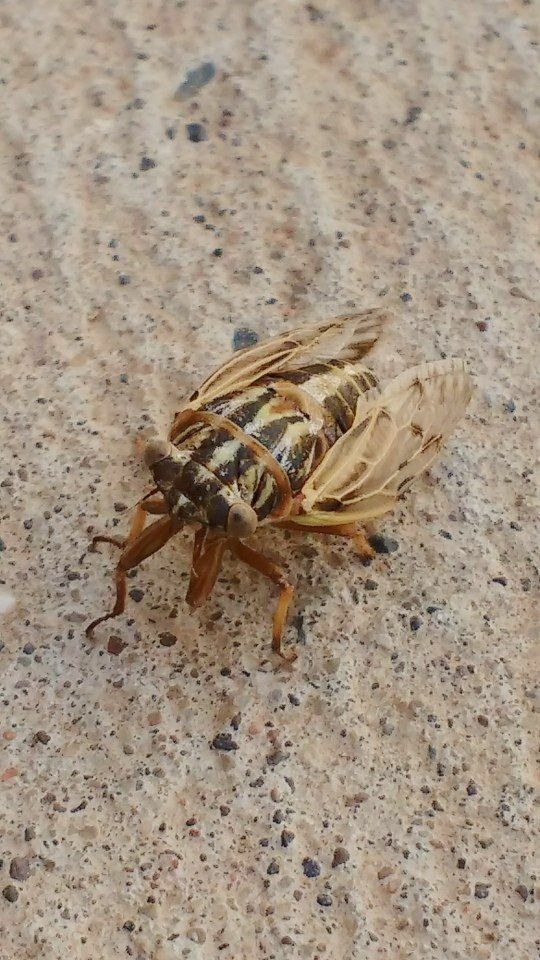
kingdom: Animalia
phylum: Arthropoda
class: Insecta
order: Hemiptera
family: Cicadidae
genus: Tympanoterpes
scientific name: Tympanoterpes elegans
